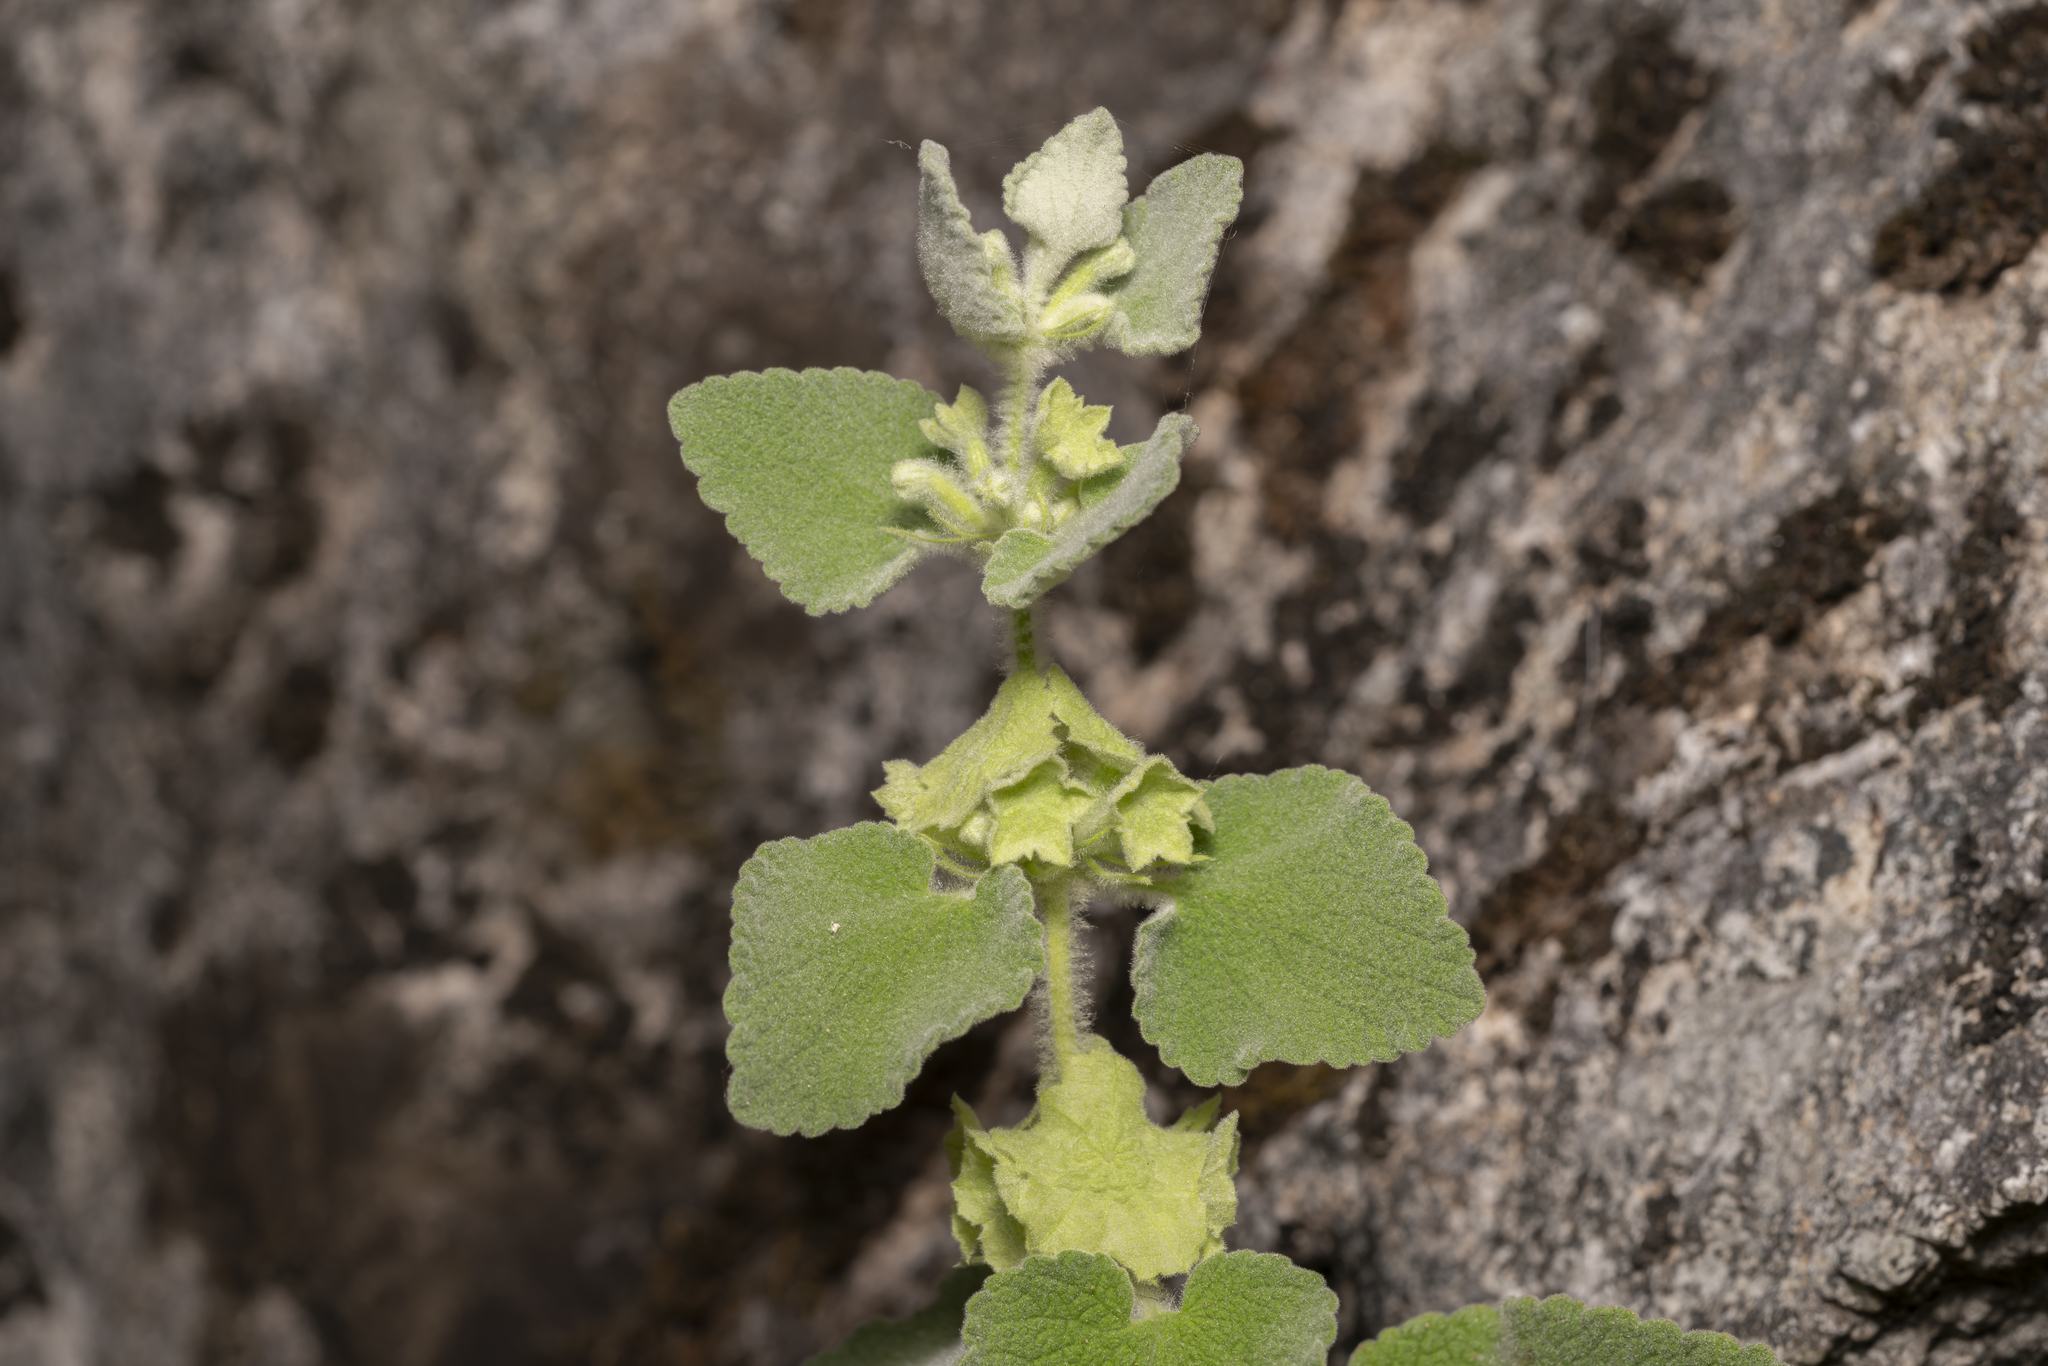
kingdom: Plantae
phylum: Tracheophyta
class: Magnoliopsida
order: Lamiales
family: Lamiaceae
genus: Pseudodictamnus
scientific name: Pseudodictamnus acetabulosus
